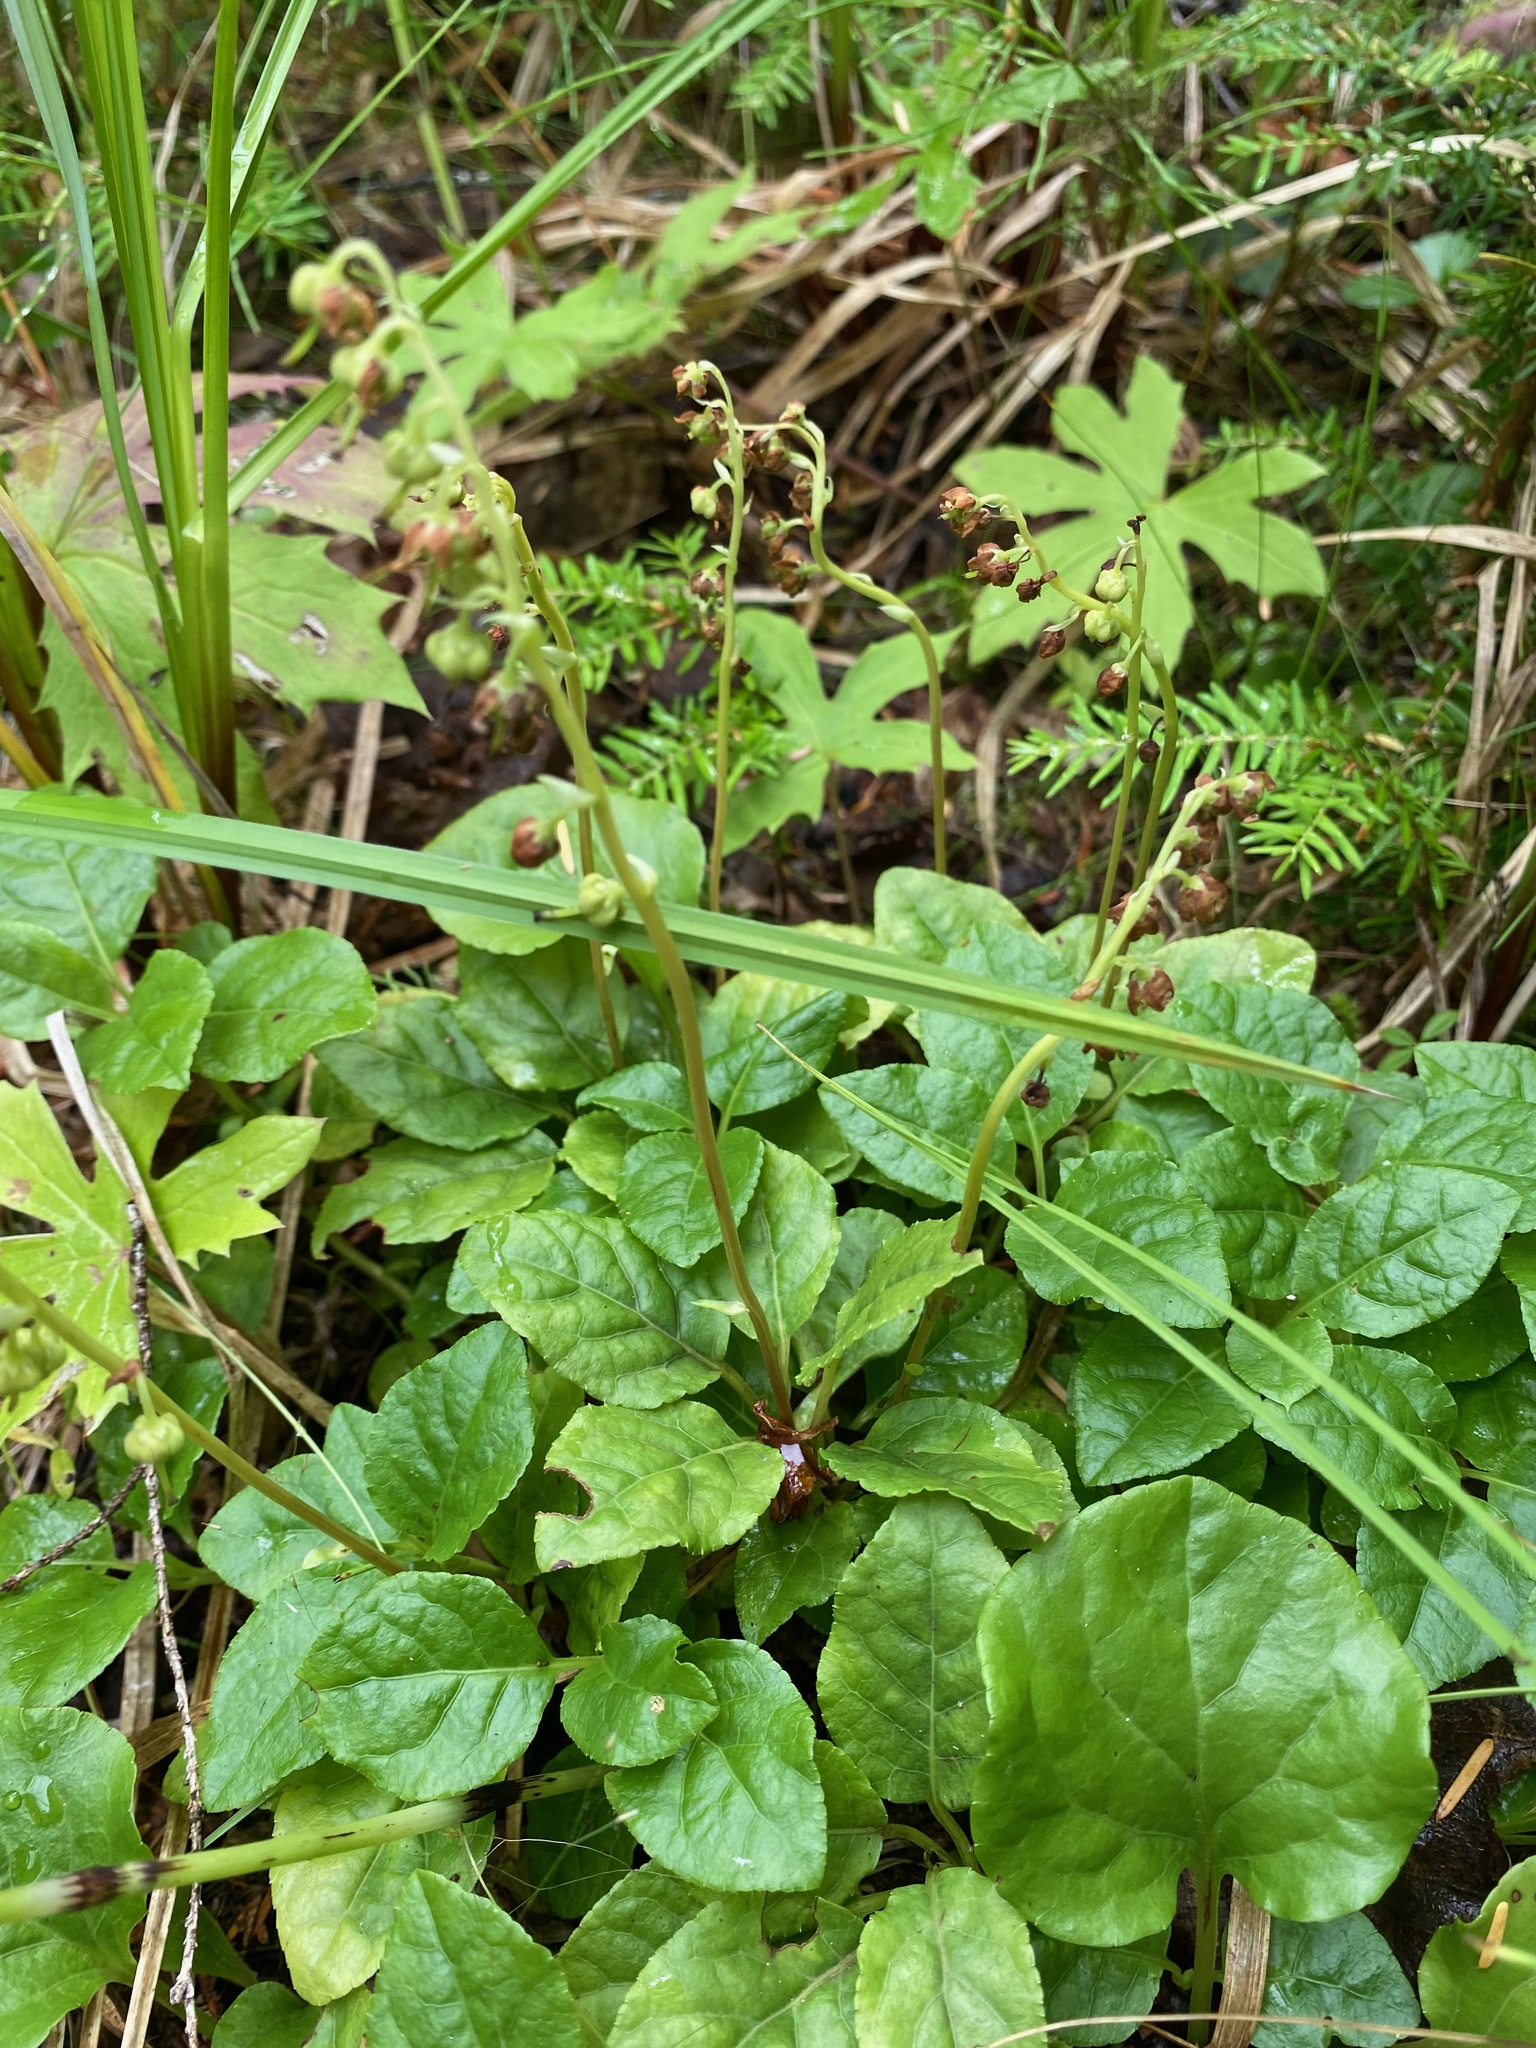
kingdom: Plantae
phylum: Tracheophyta
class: Magnoliopsida
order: Ericales
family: Ericaceae
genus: Orthilia
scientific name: Orthilia secunda
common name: One-sided orthilia
